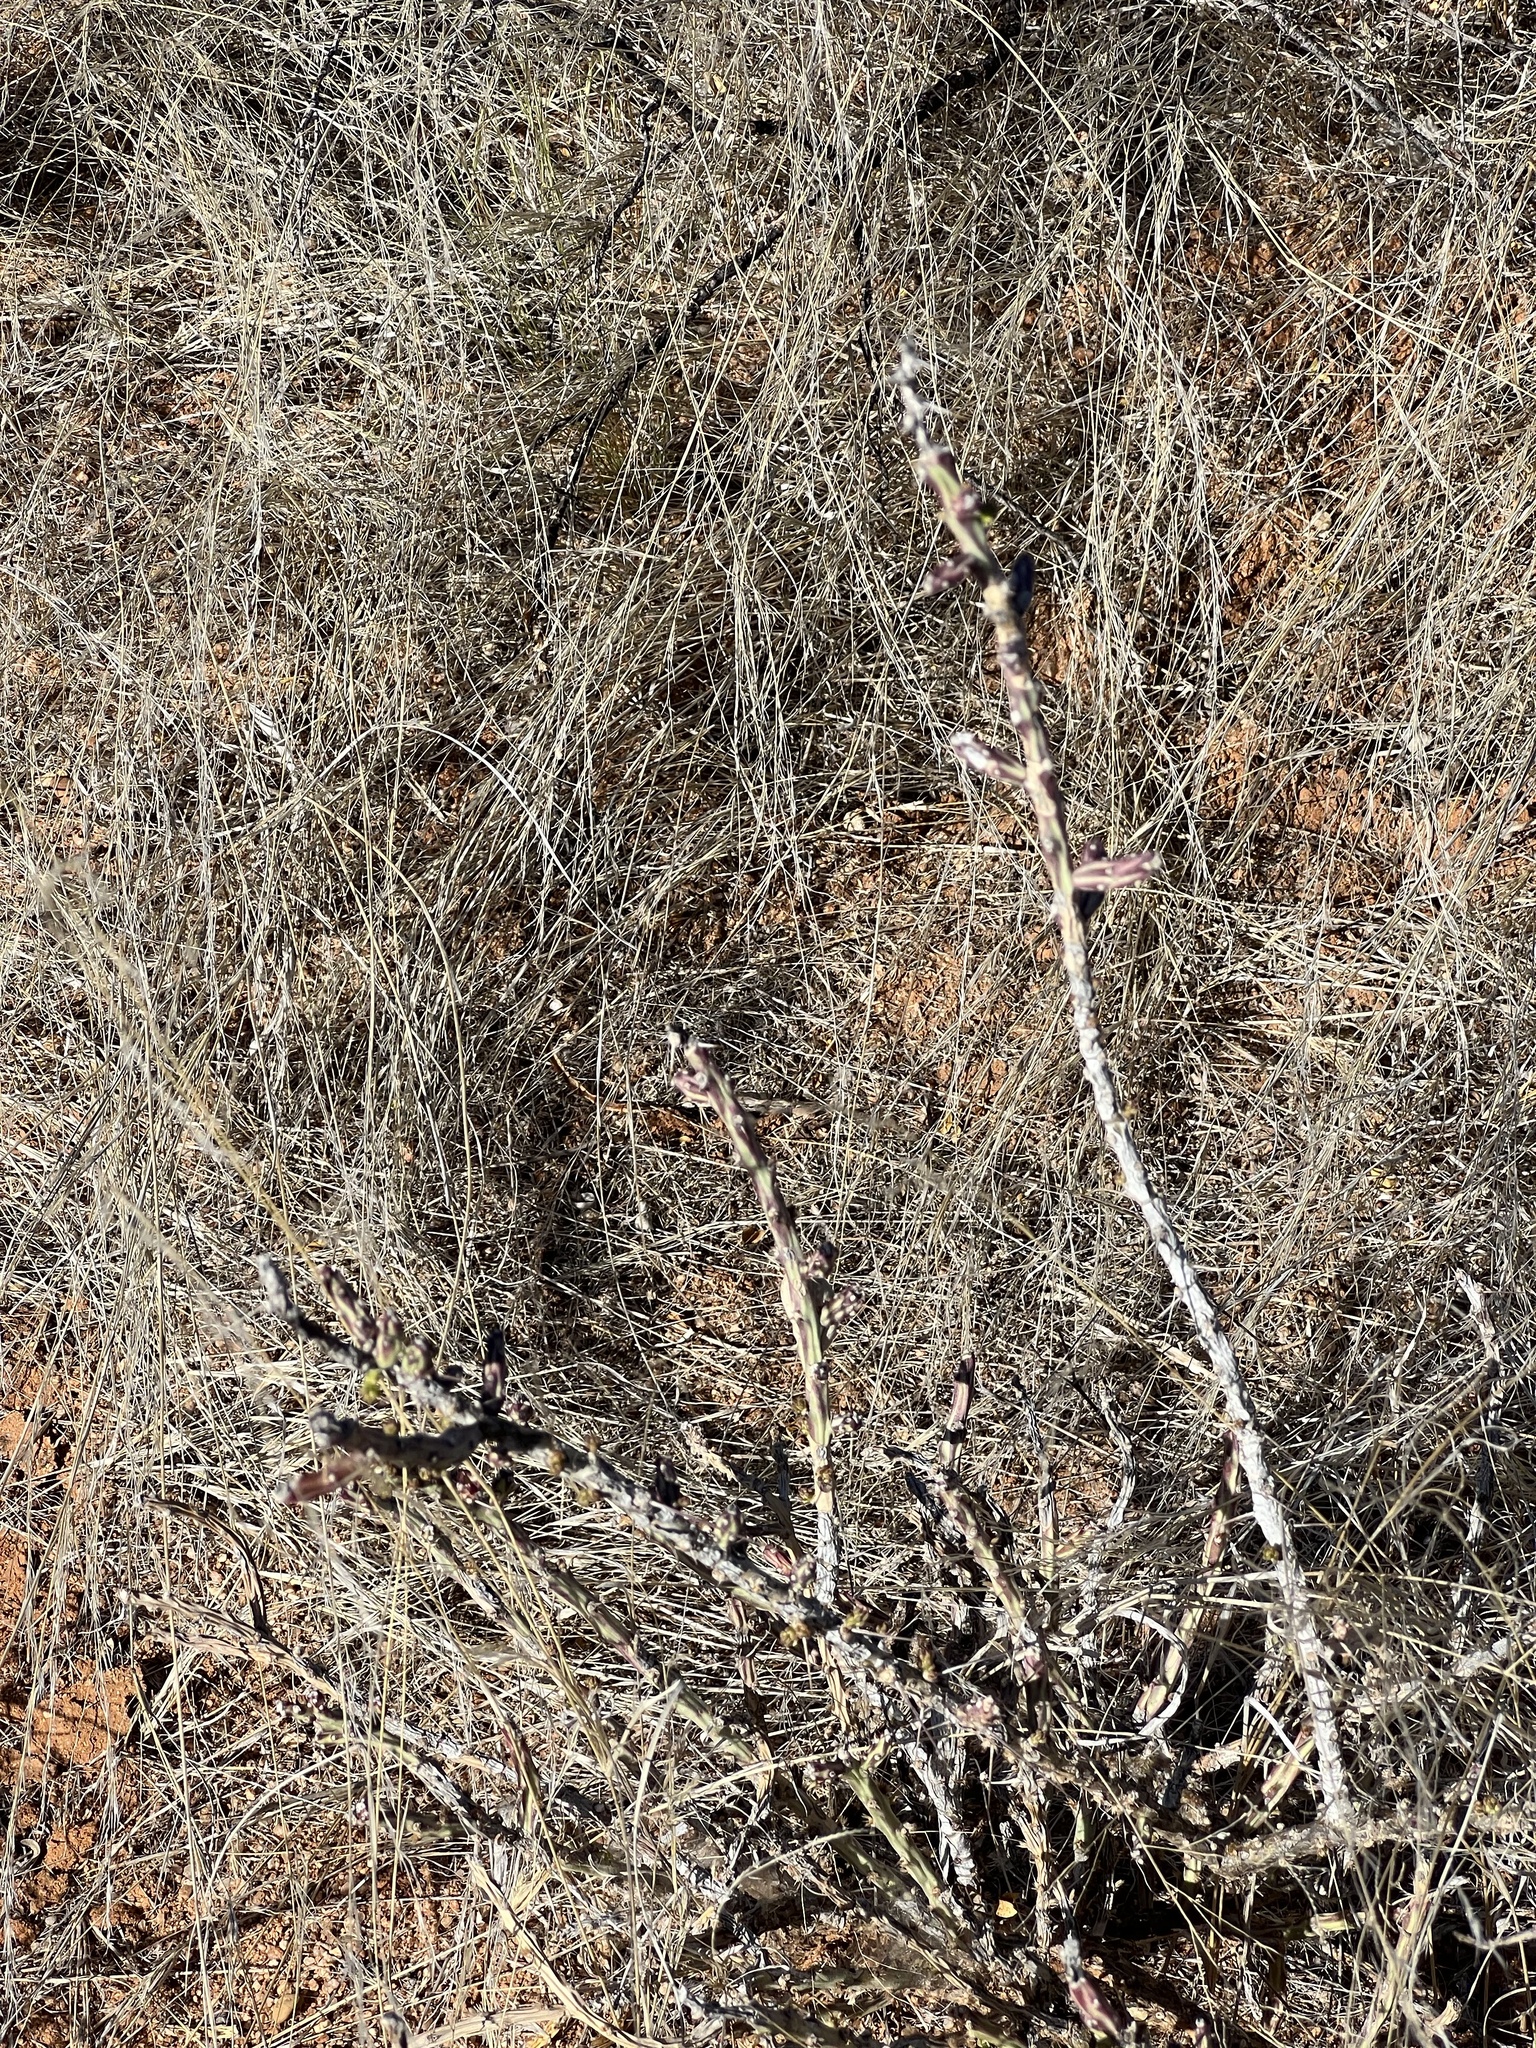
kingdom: Plantae
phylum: Tracheophyta
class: Magnoliopsida
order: Caryophyllales
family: Cactaceae
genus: Cylindropuntia
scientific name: Cylindropuntia leptocaulis
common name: Christmas cactus
